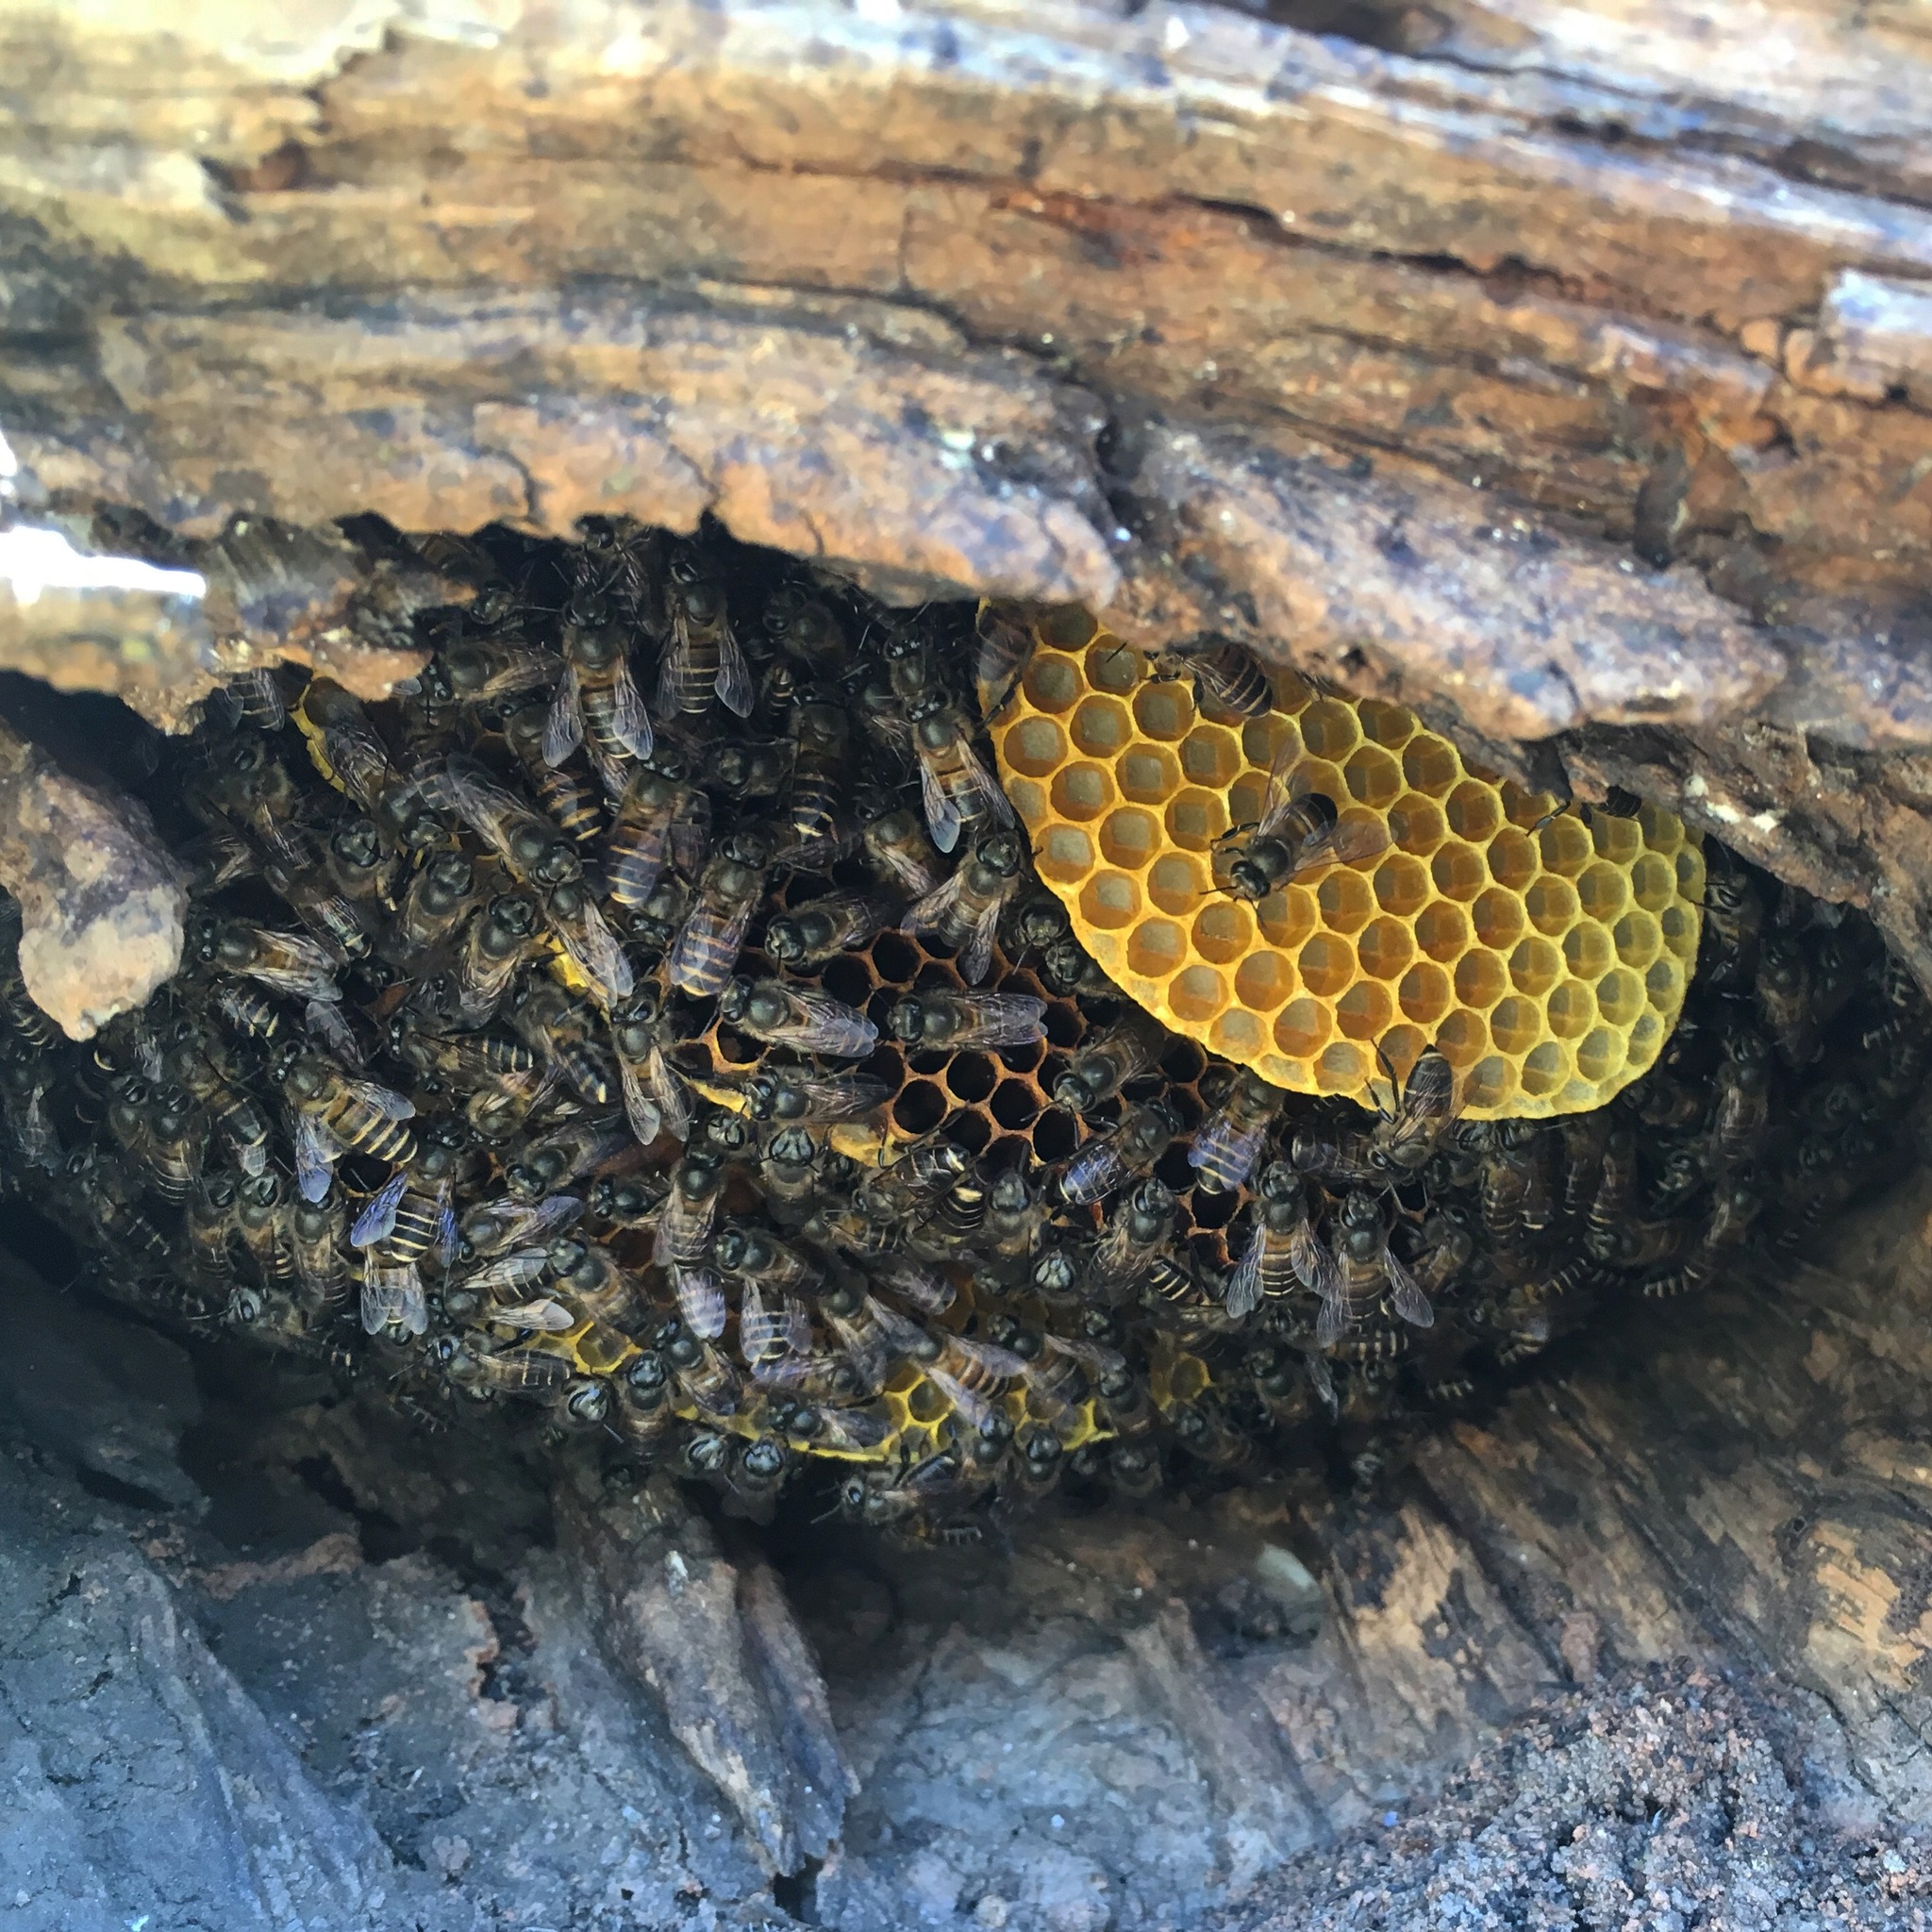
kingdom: Animalia
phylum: Arthropoda
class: Insecta
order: Hymenoptera
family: Apidae
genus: Apis
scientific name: Apis cerana
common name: Honey bee
